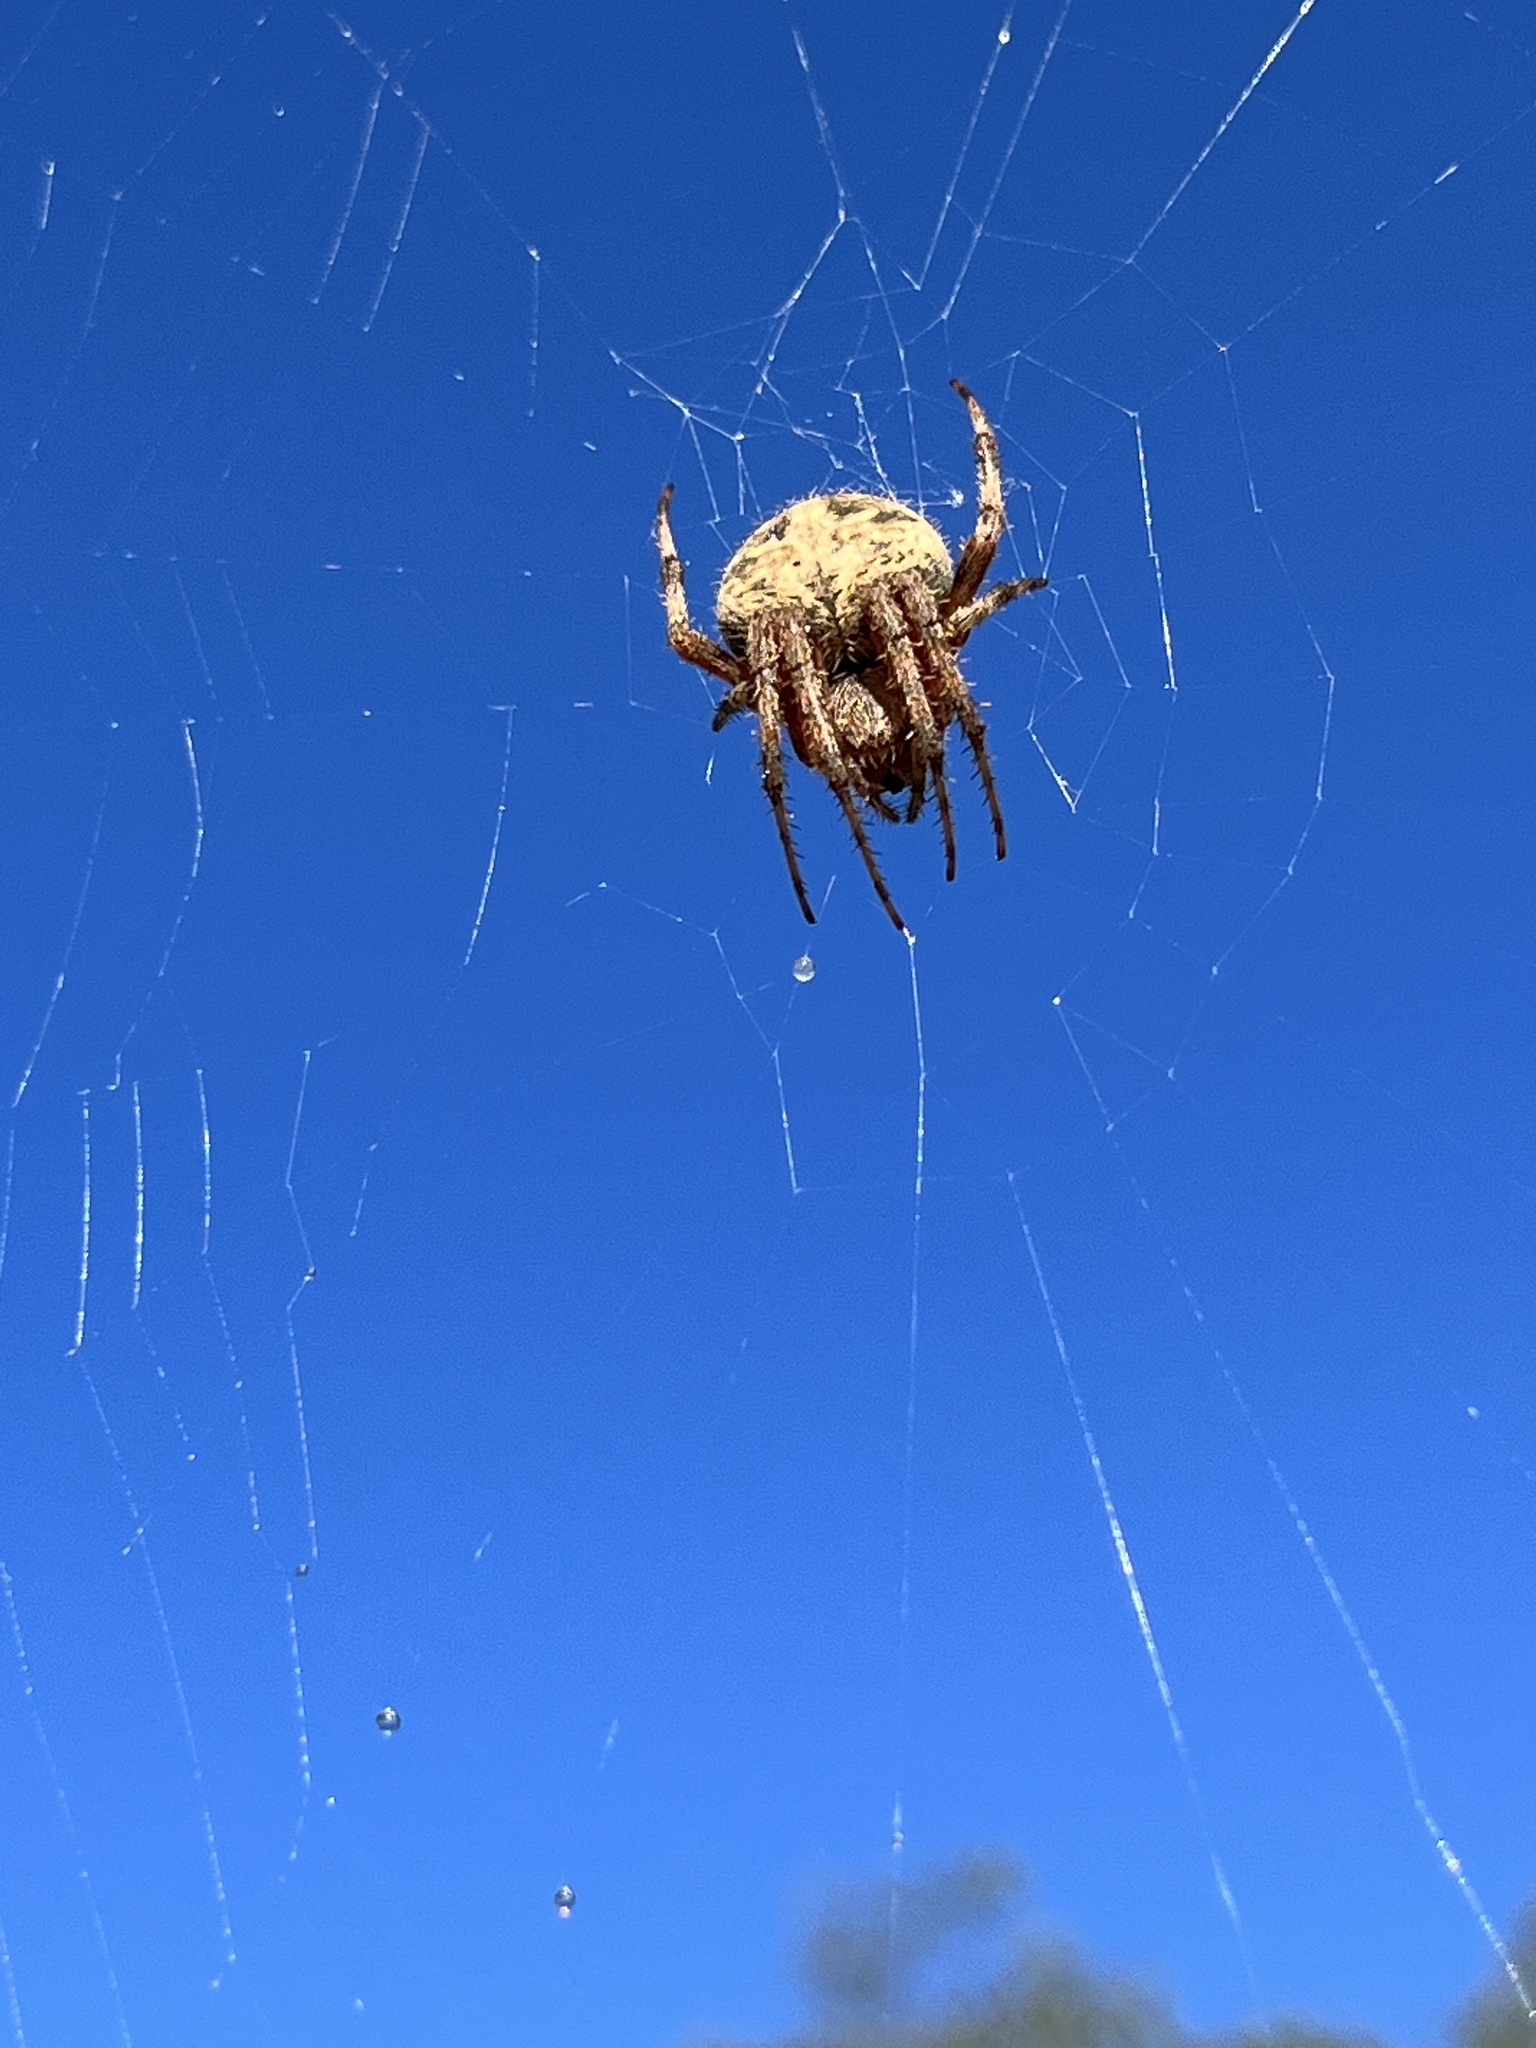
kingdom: Animalia
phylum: Arthropoda
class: Arachnida
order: Araneae
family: Araneidae
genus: Neoscona
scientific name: Neoscona crucifera
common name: Spotted orbweaver
